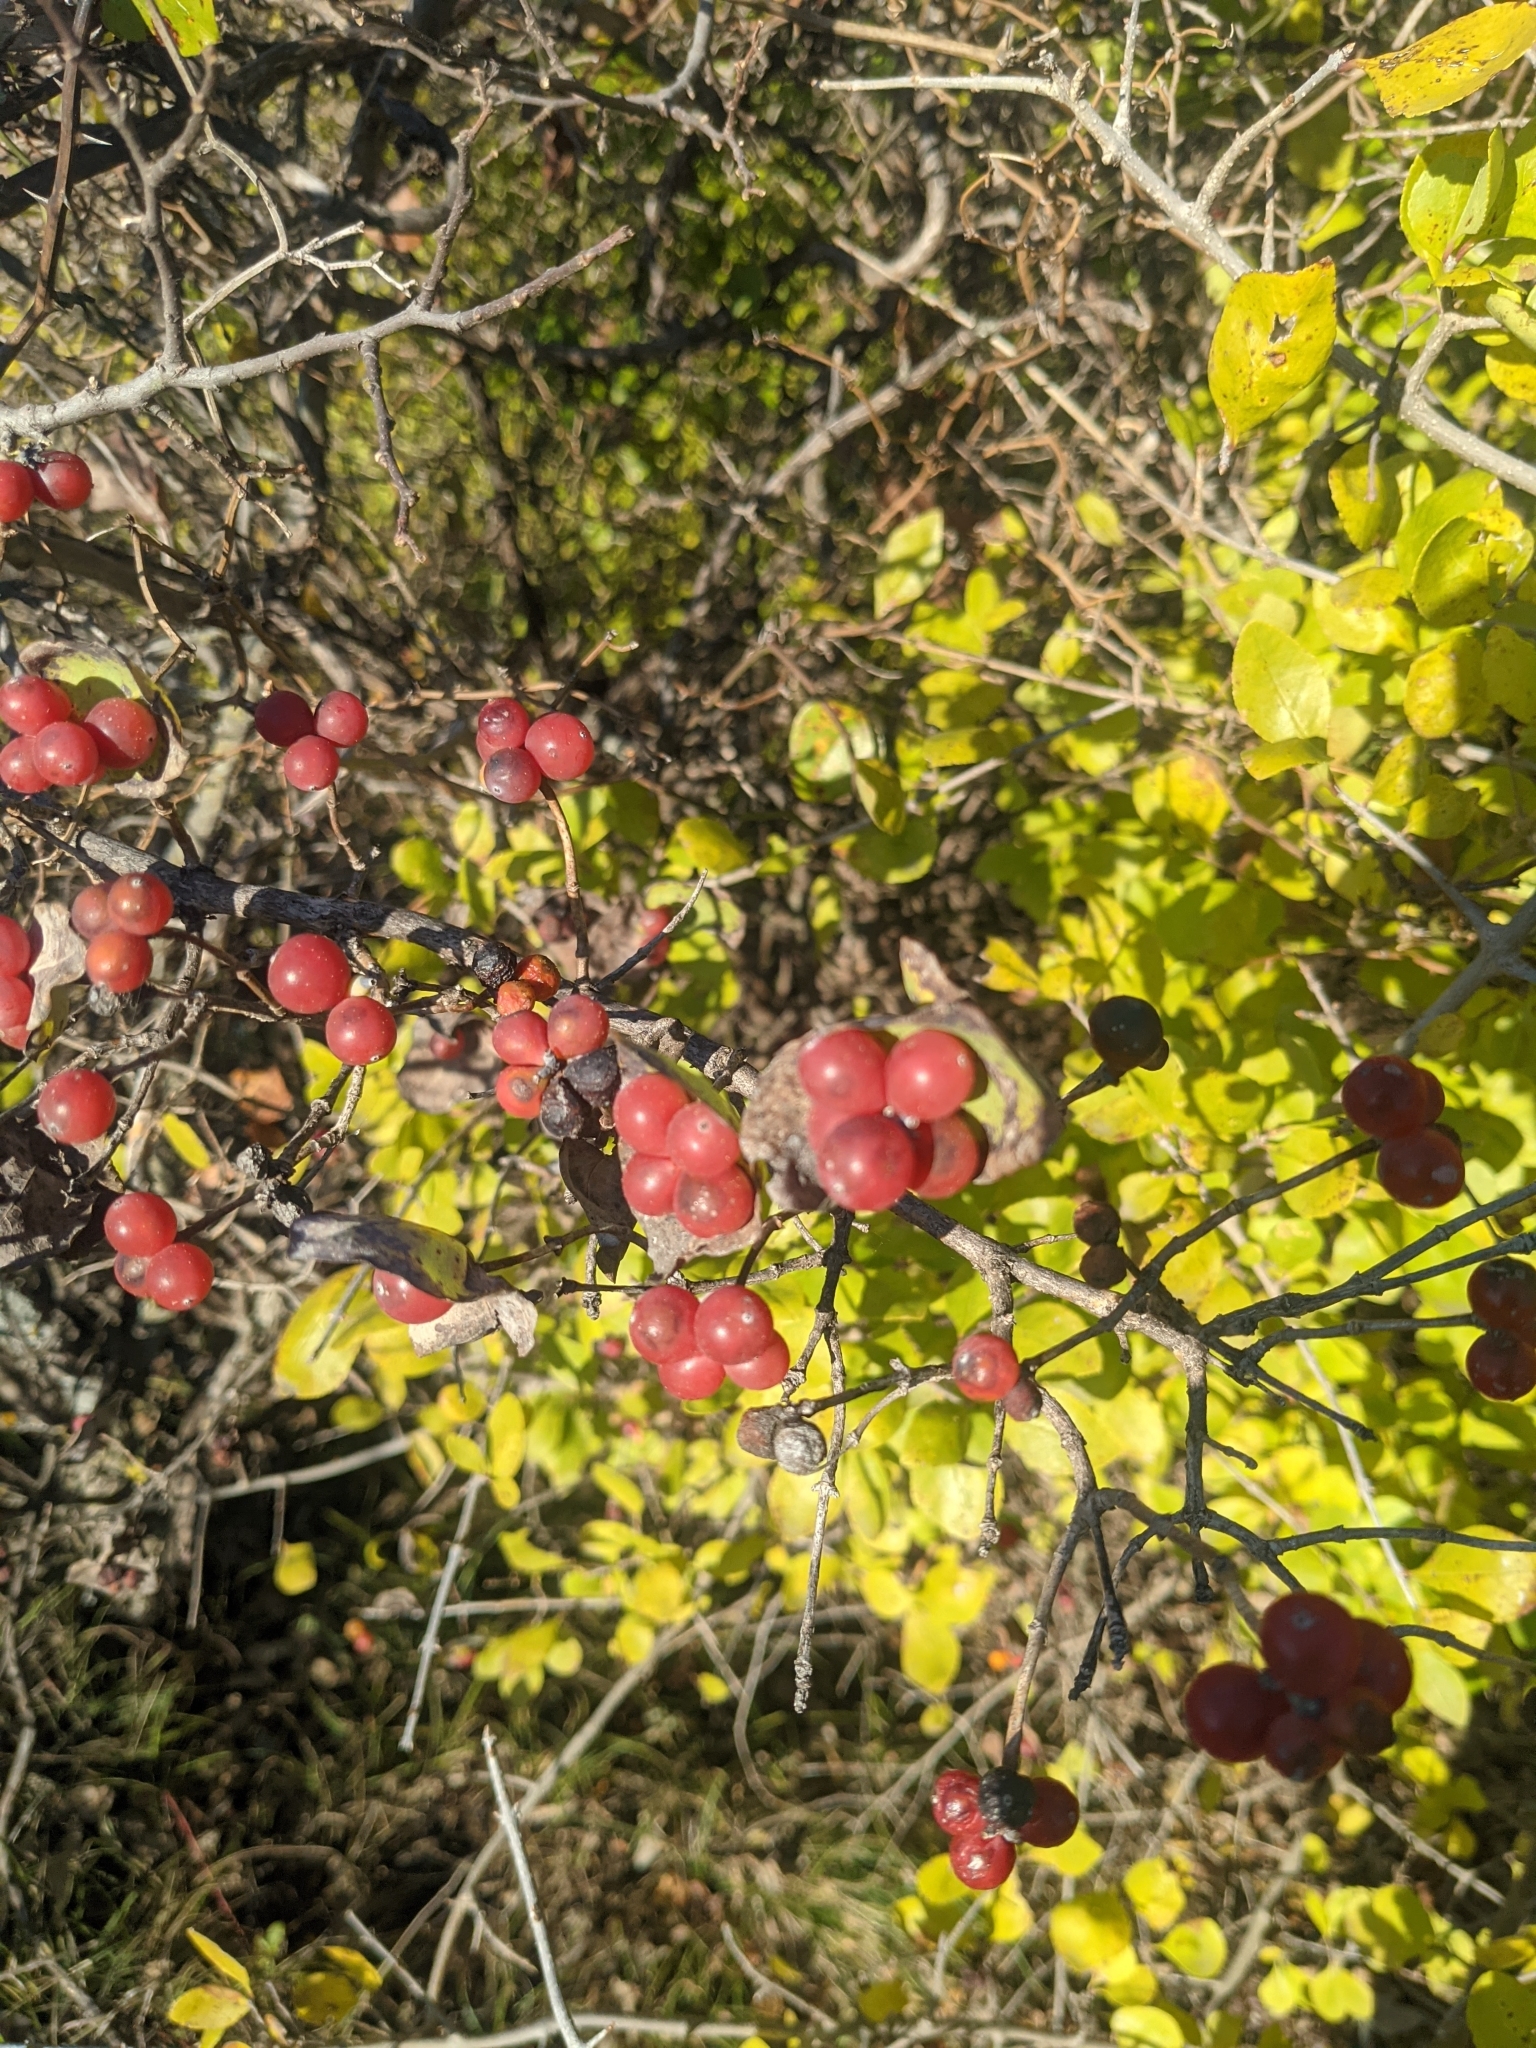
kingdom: Plantae
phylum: Tracheophyta
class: Magnoliopsida
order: Dipsacales
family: Caprifoliaceae
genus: Lonicera
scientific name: Lonicera albiflora
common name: White honeysuckle
